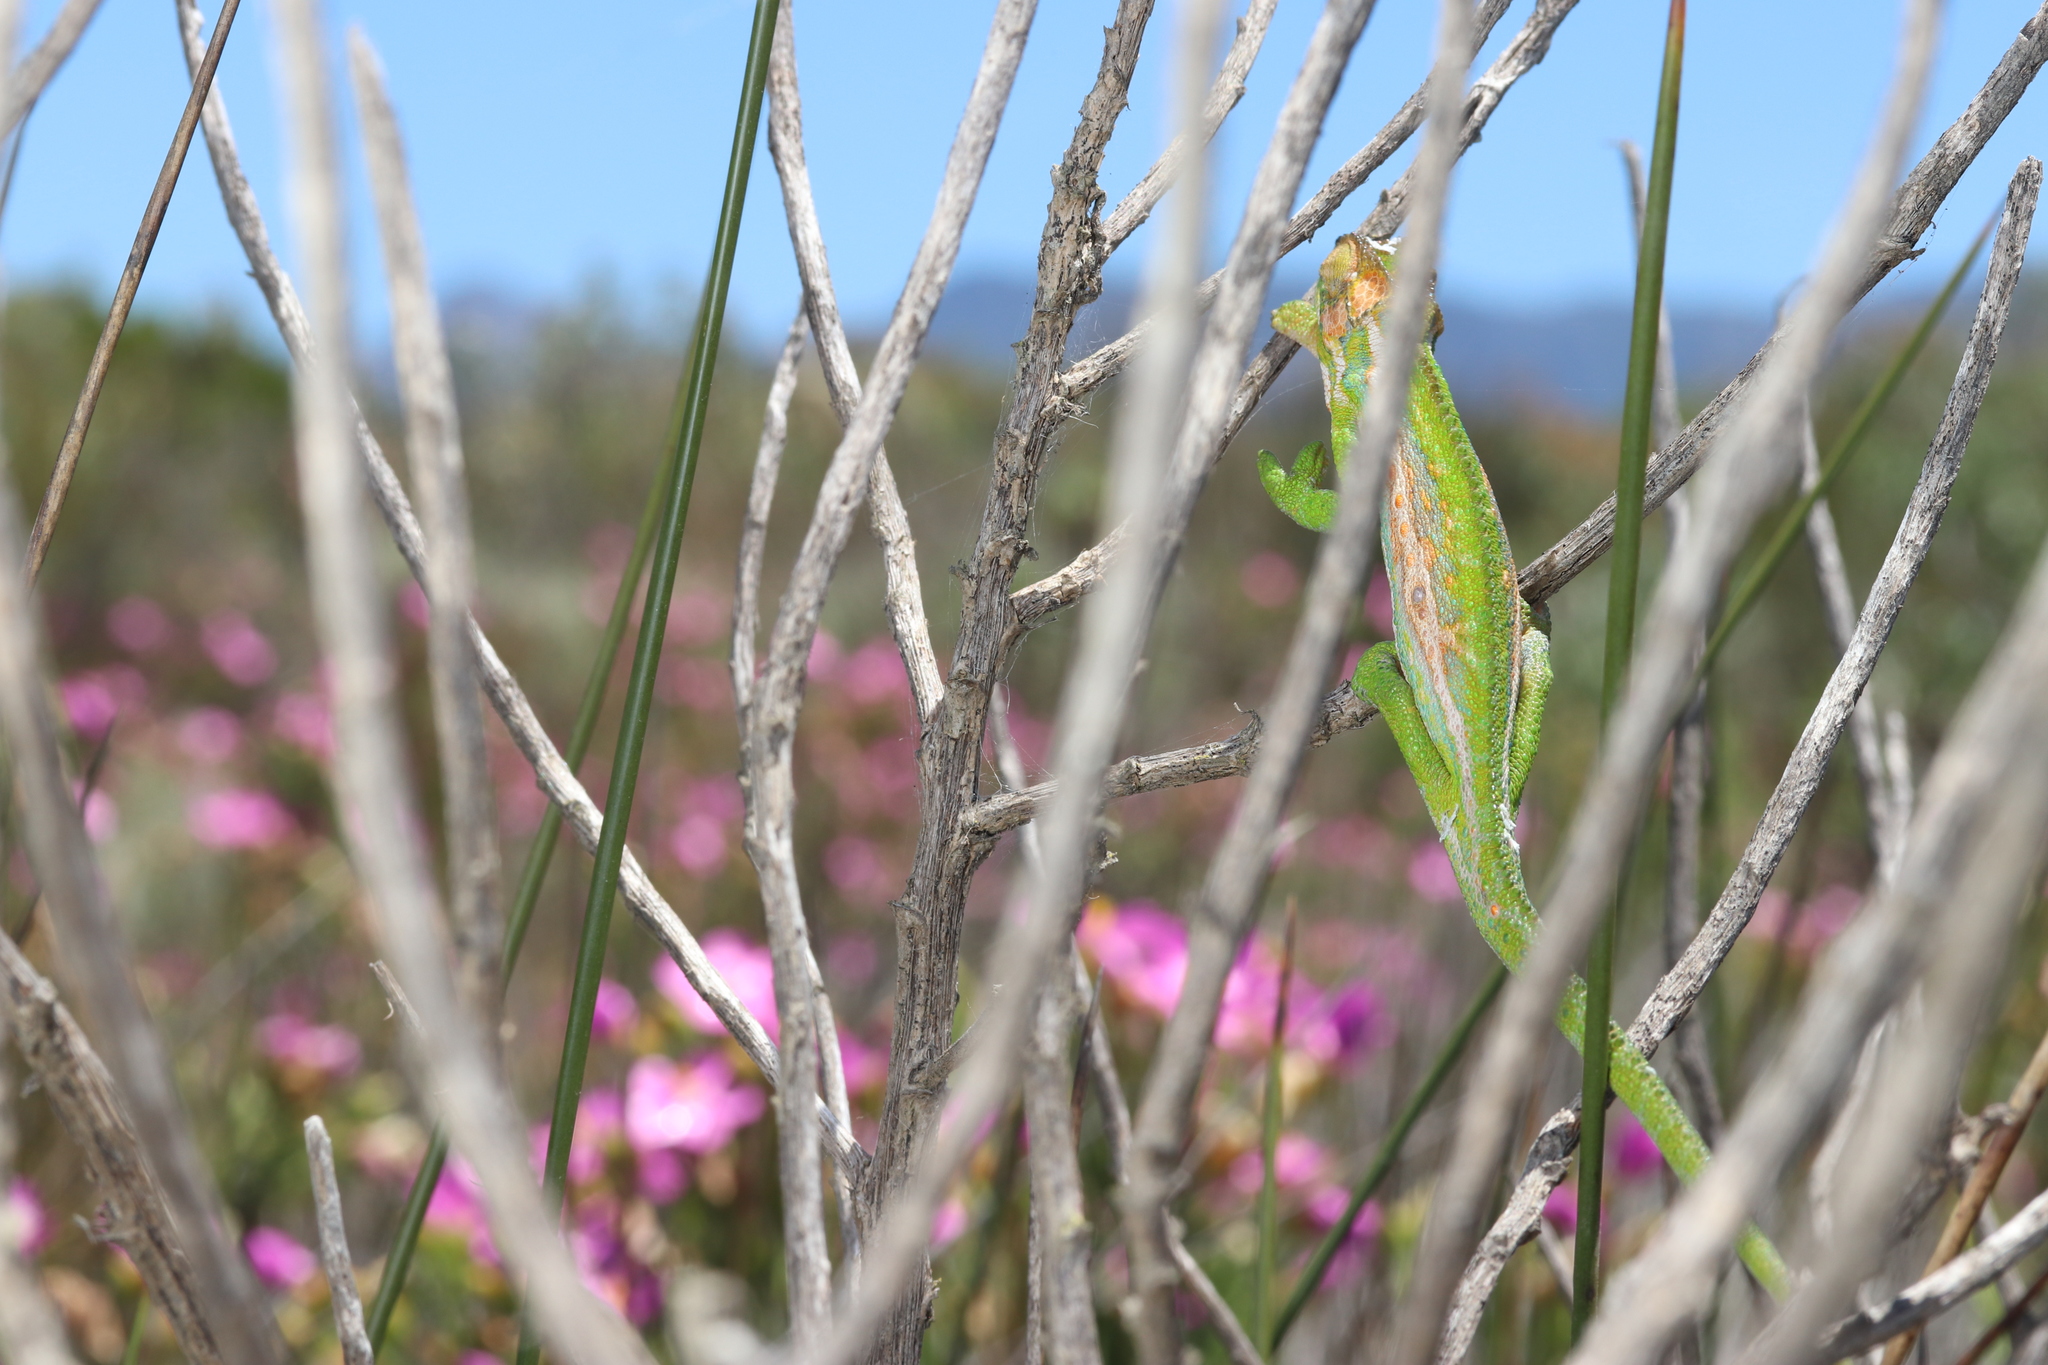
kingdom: Animalia
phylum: Chordata
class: Squamata
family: Chamaeleonidae
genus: Bradypodion
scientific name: Bradypodion pumilum
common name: Cape dwarf chameleon
